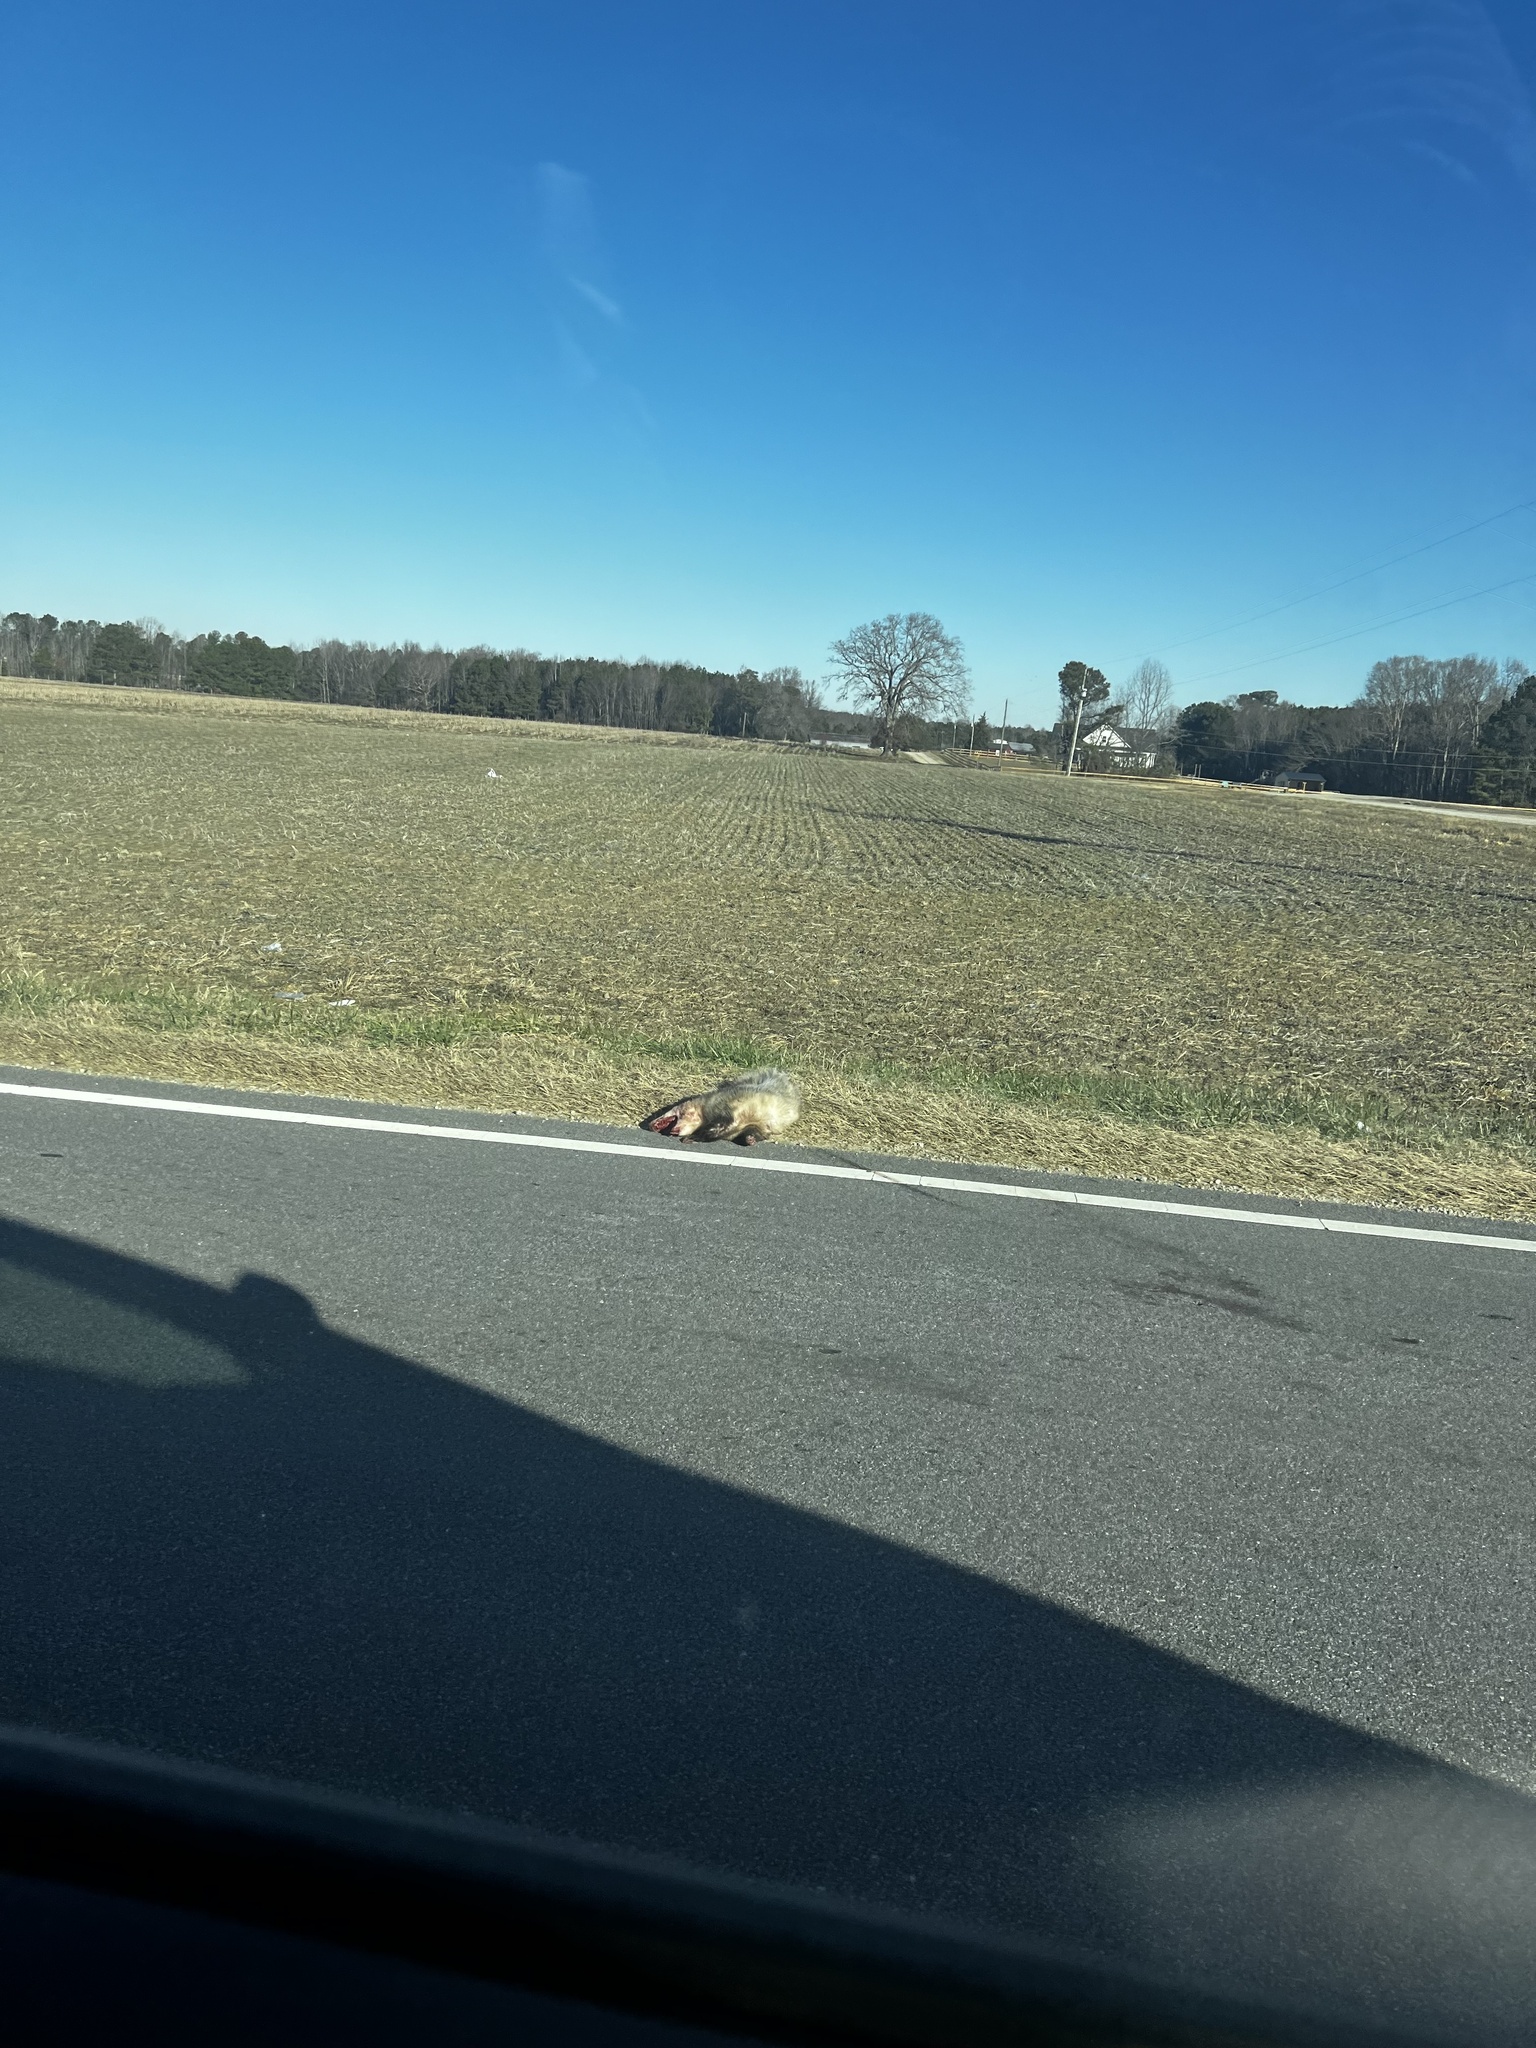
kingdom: Animalia
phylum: Chordata
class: Mammalia
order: Didelphimorphia
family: Didelphidae
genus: Didelphis
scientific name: Didelphis virginiana
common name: Virginia opossum
